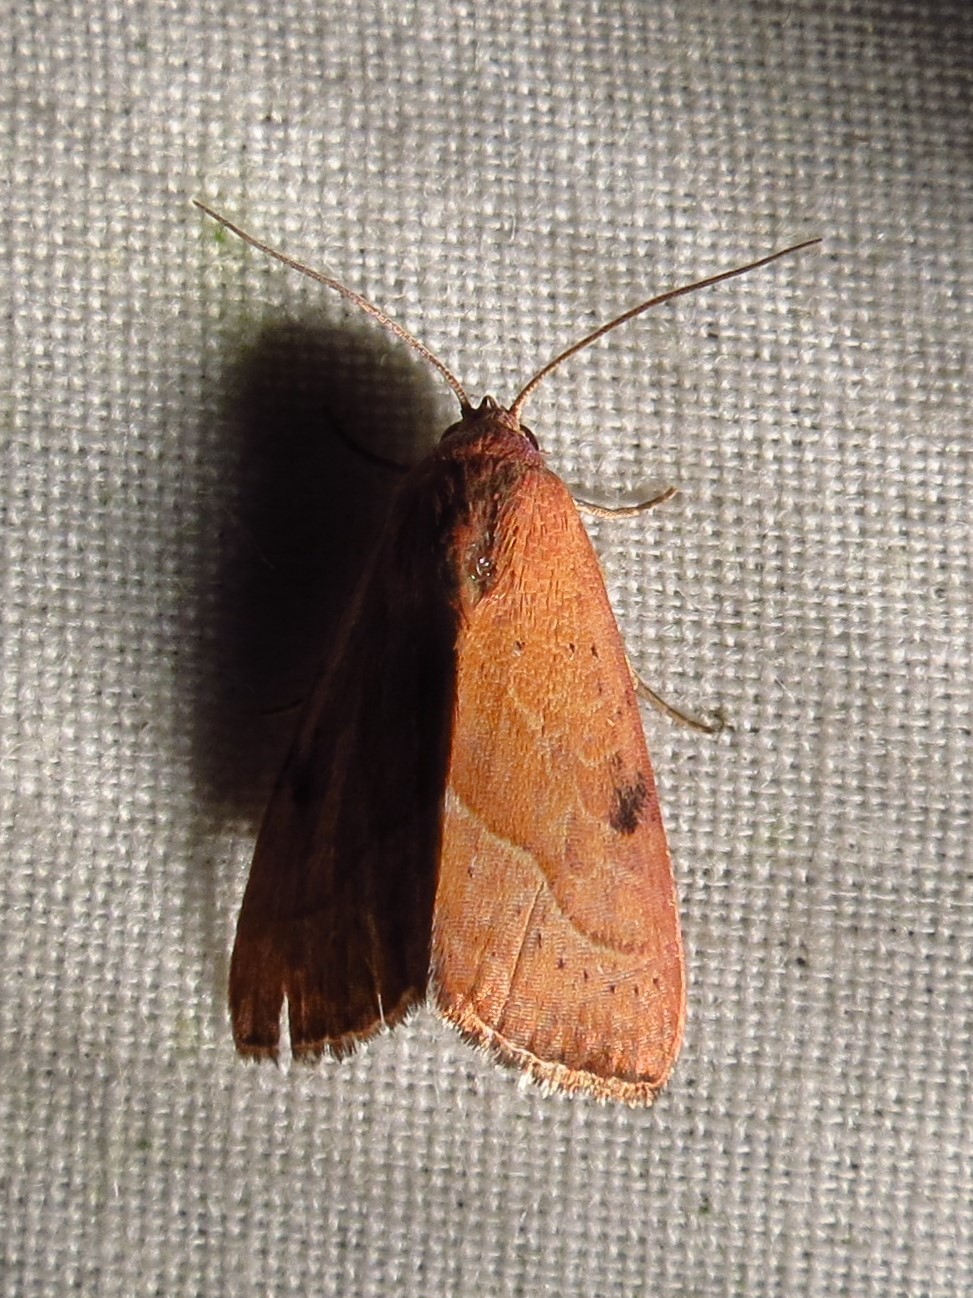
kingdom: Animalia
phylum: Arthropoda
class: Insecta
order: Lepidoptera
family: Noctuidae
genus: Galgula
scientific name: Galgula partita
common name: Wedgeling
